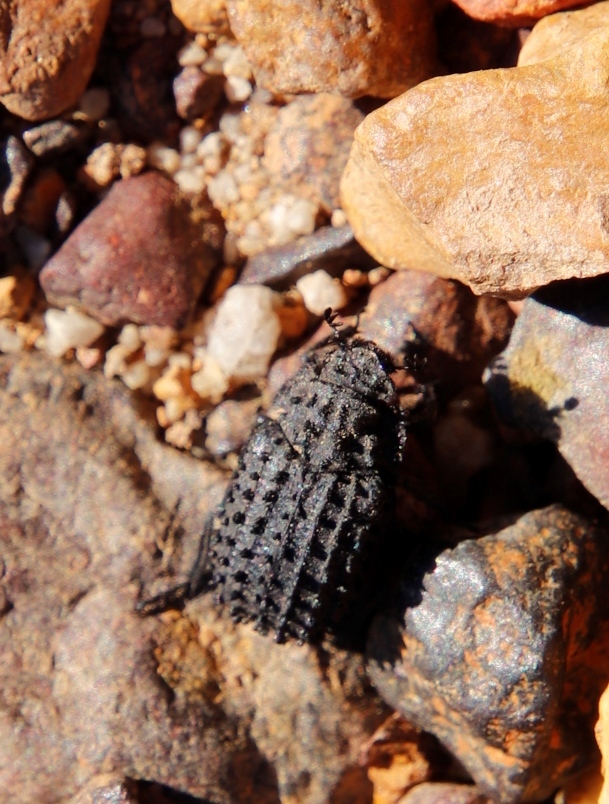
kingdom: Animalia
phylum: Arthropoda
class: Insecta
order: Coleoptera
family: Trogidae
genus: Phoberus
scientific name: Phoberus fascicularis
